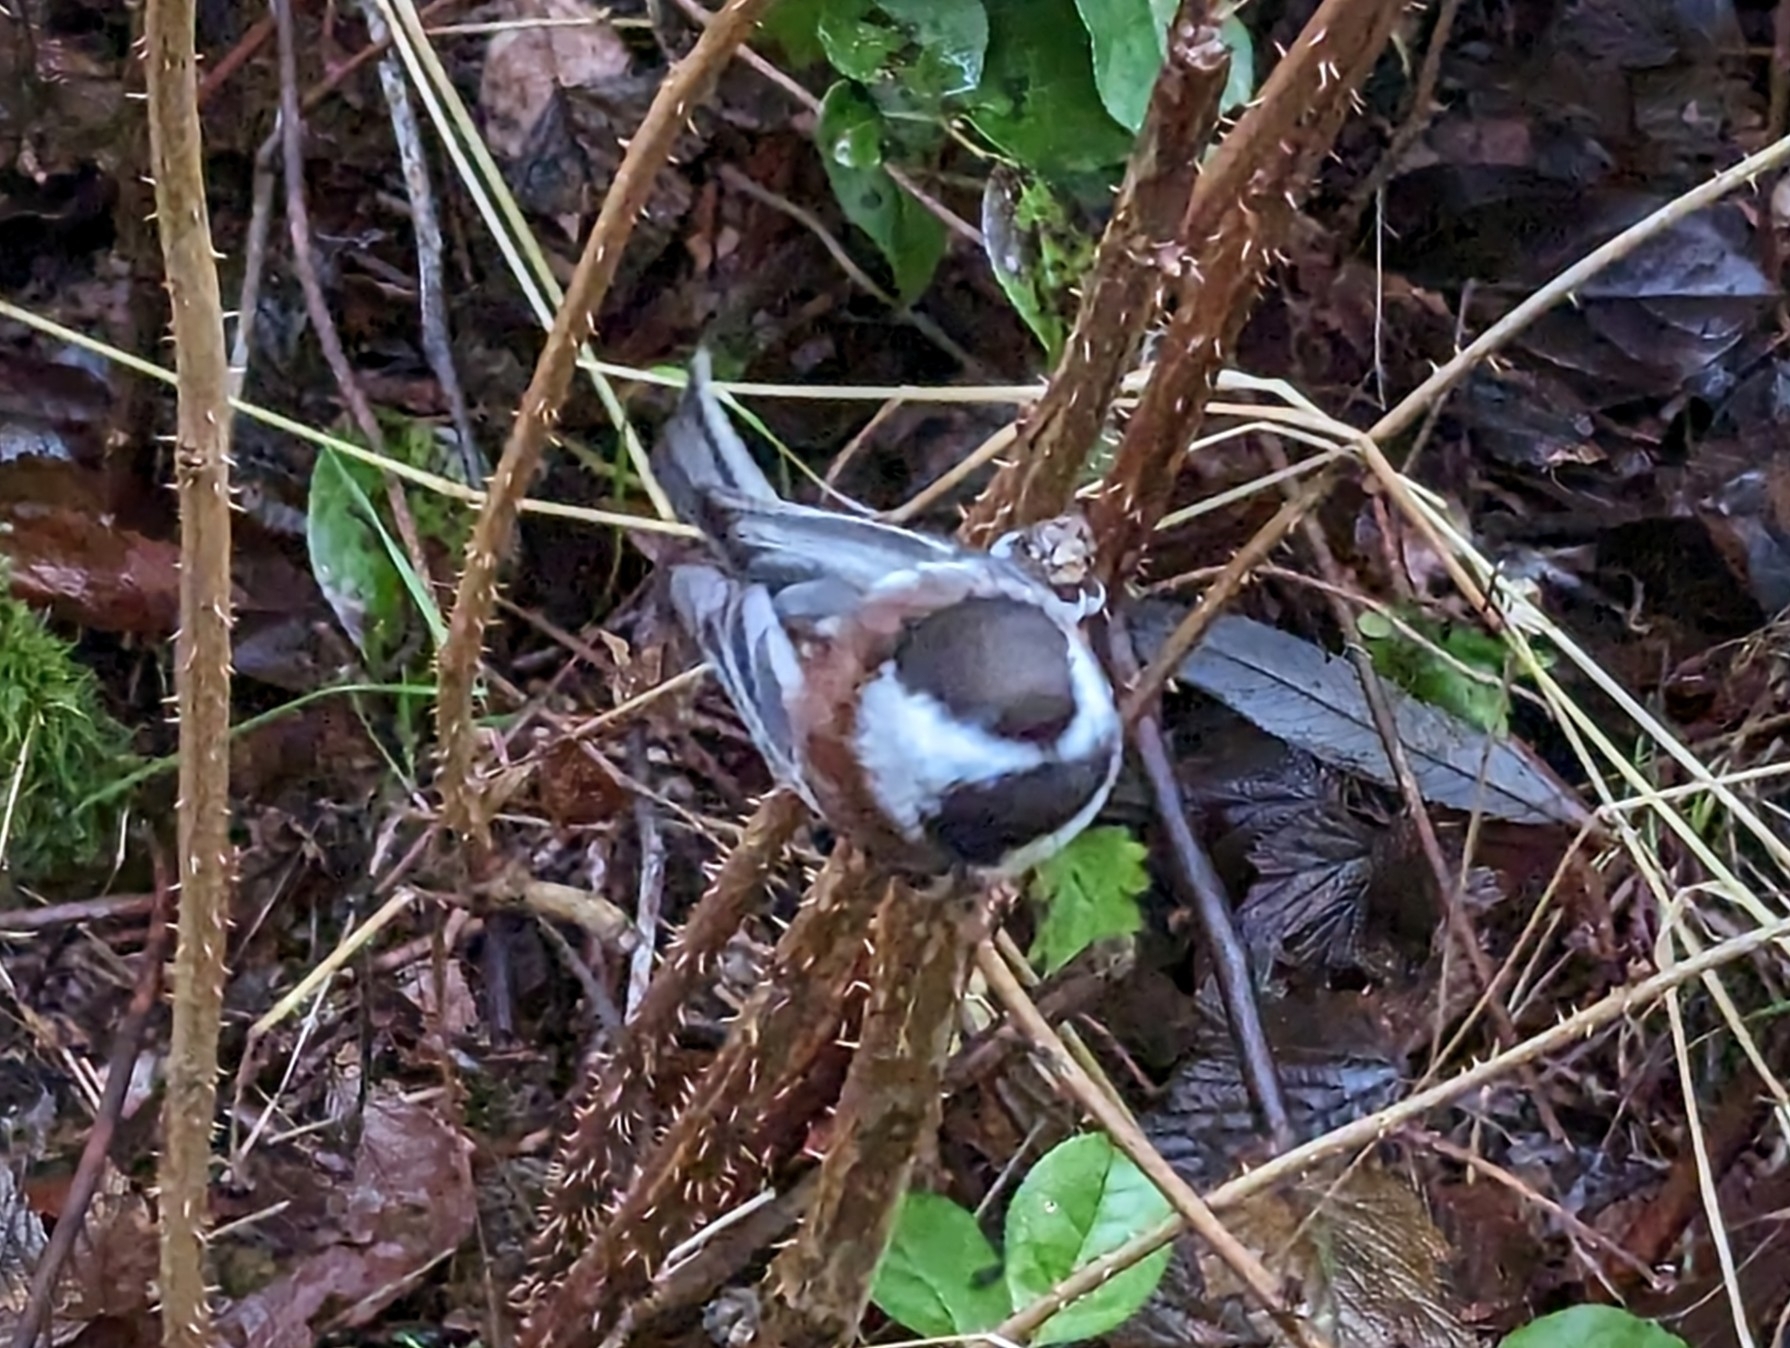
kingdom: Animalia
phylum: Chordata
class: Aves
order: Passeriformes
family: Paridae
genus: Poecile
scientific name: Poecile rufescens
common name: Chestnut-backed chickadee
